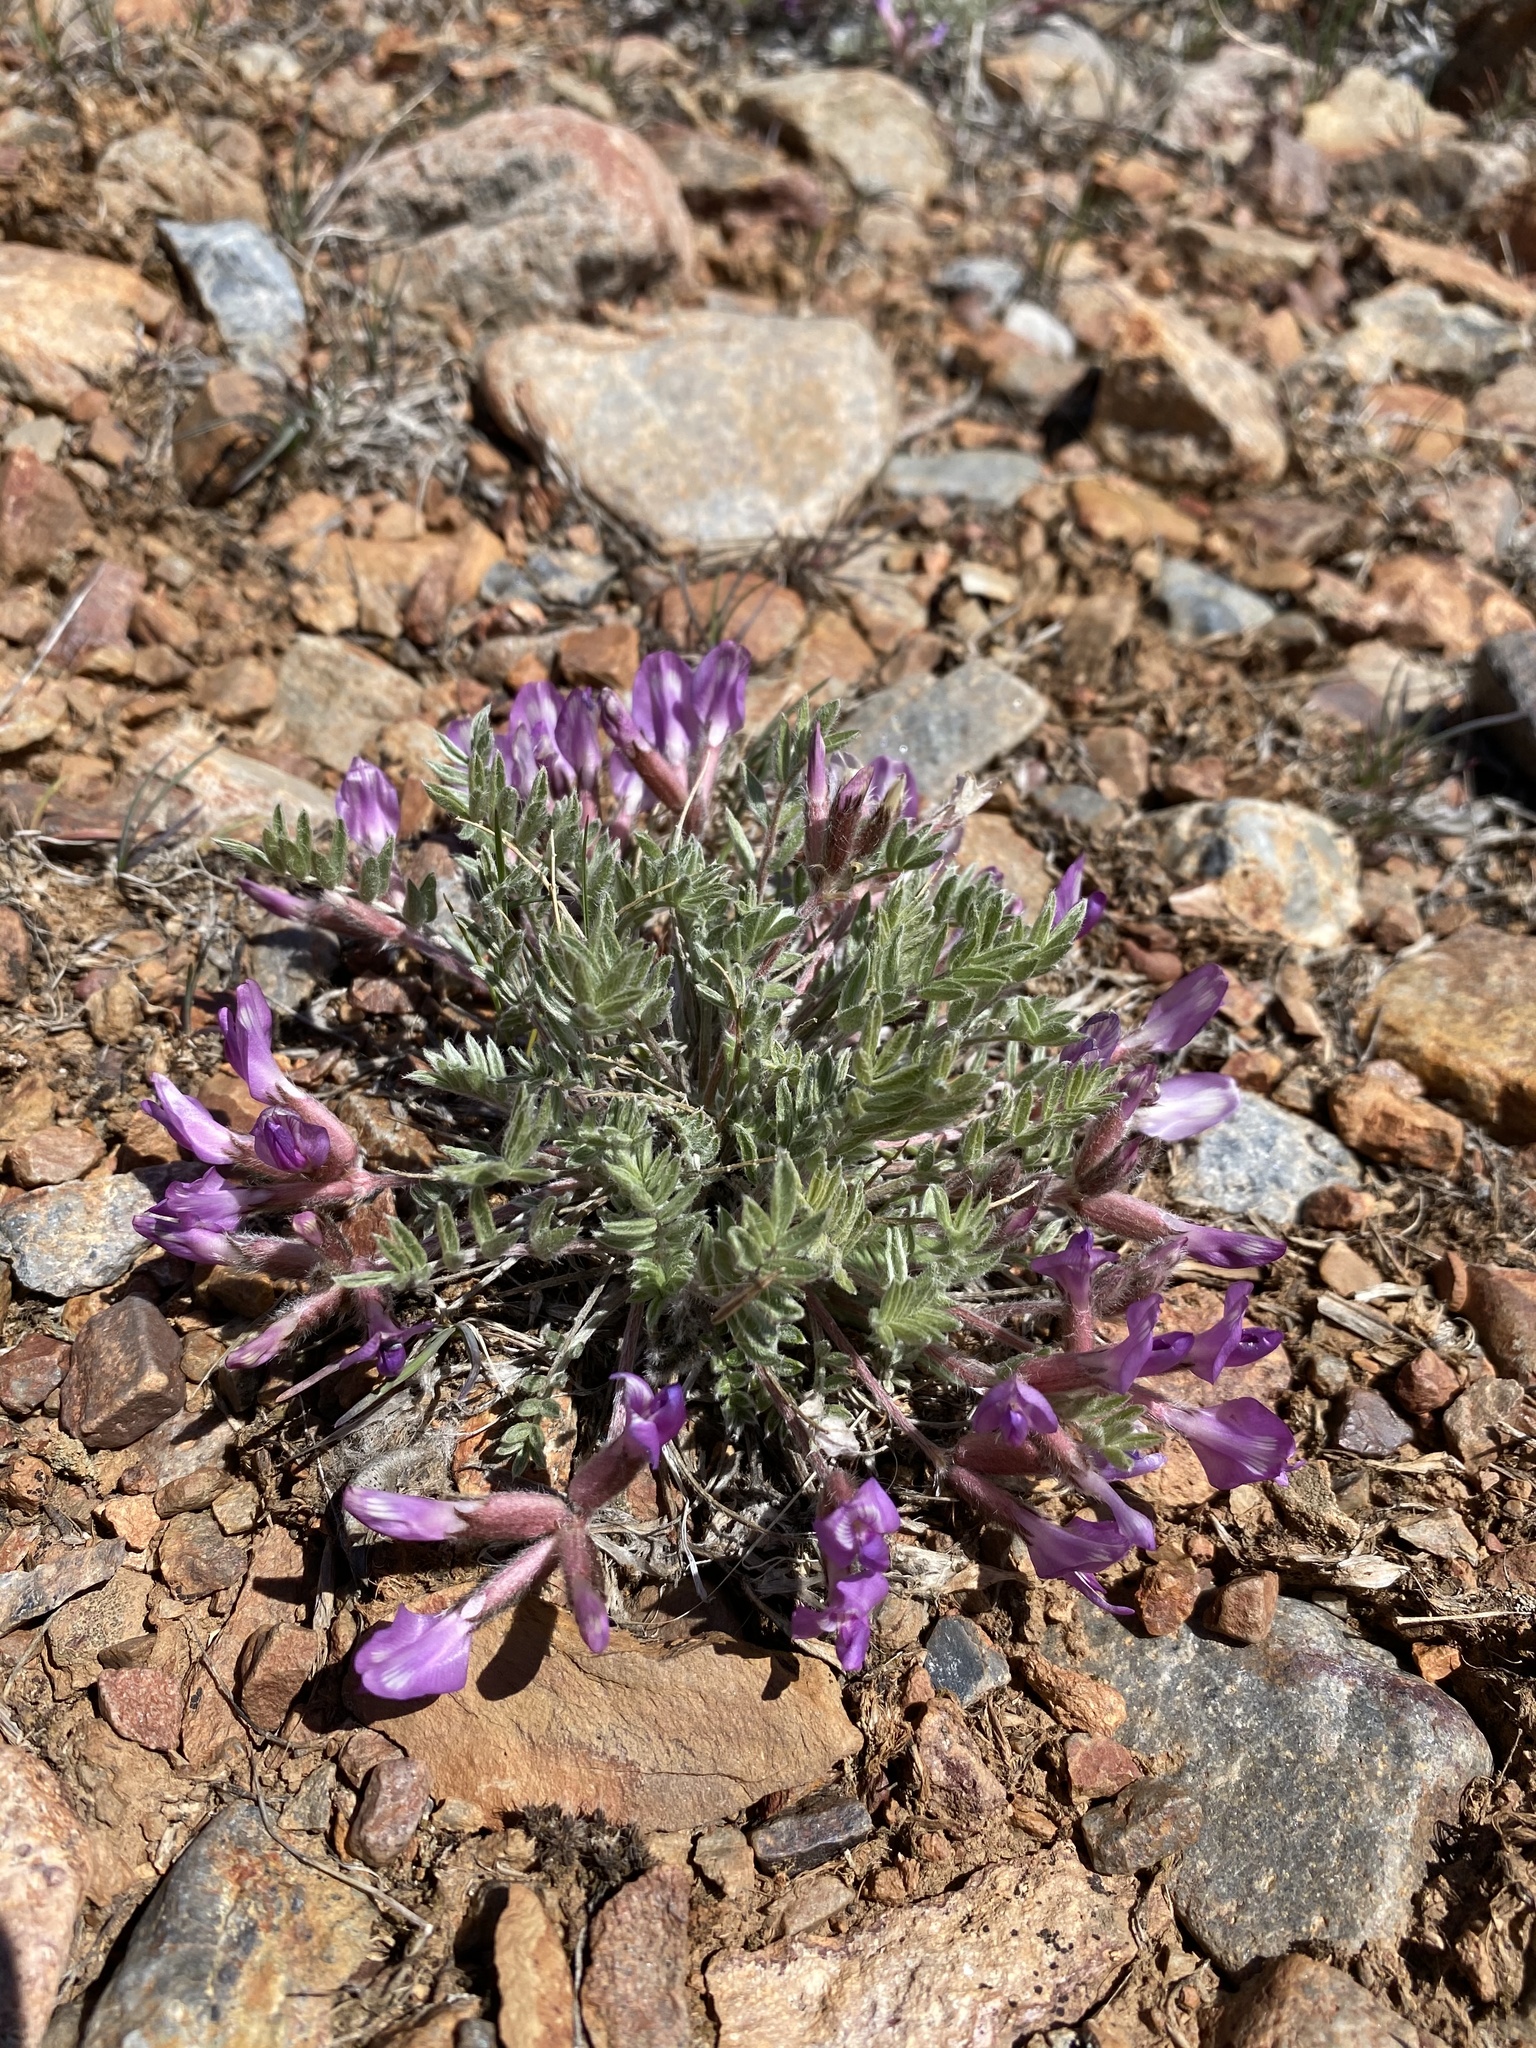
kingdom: Plantae
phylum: Tracheophyta
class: Magnoliopsida
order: Fabales
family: Fabaceae
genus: Astragalus
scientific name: Astragalus purshii
